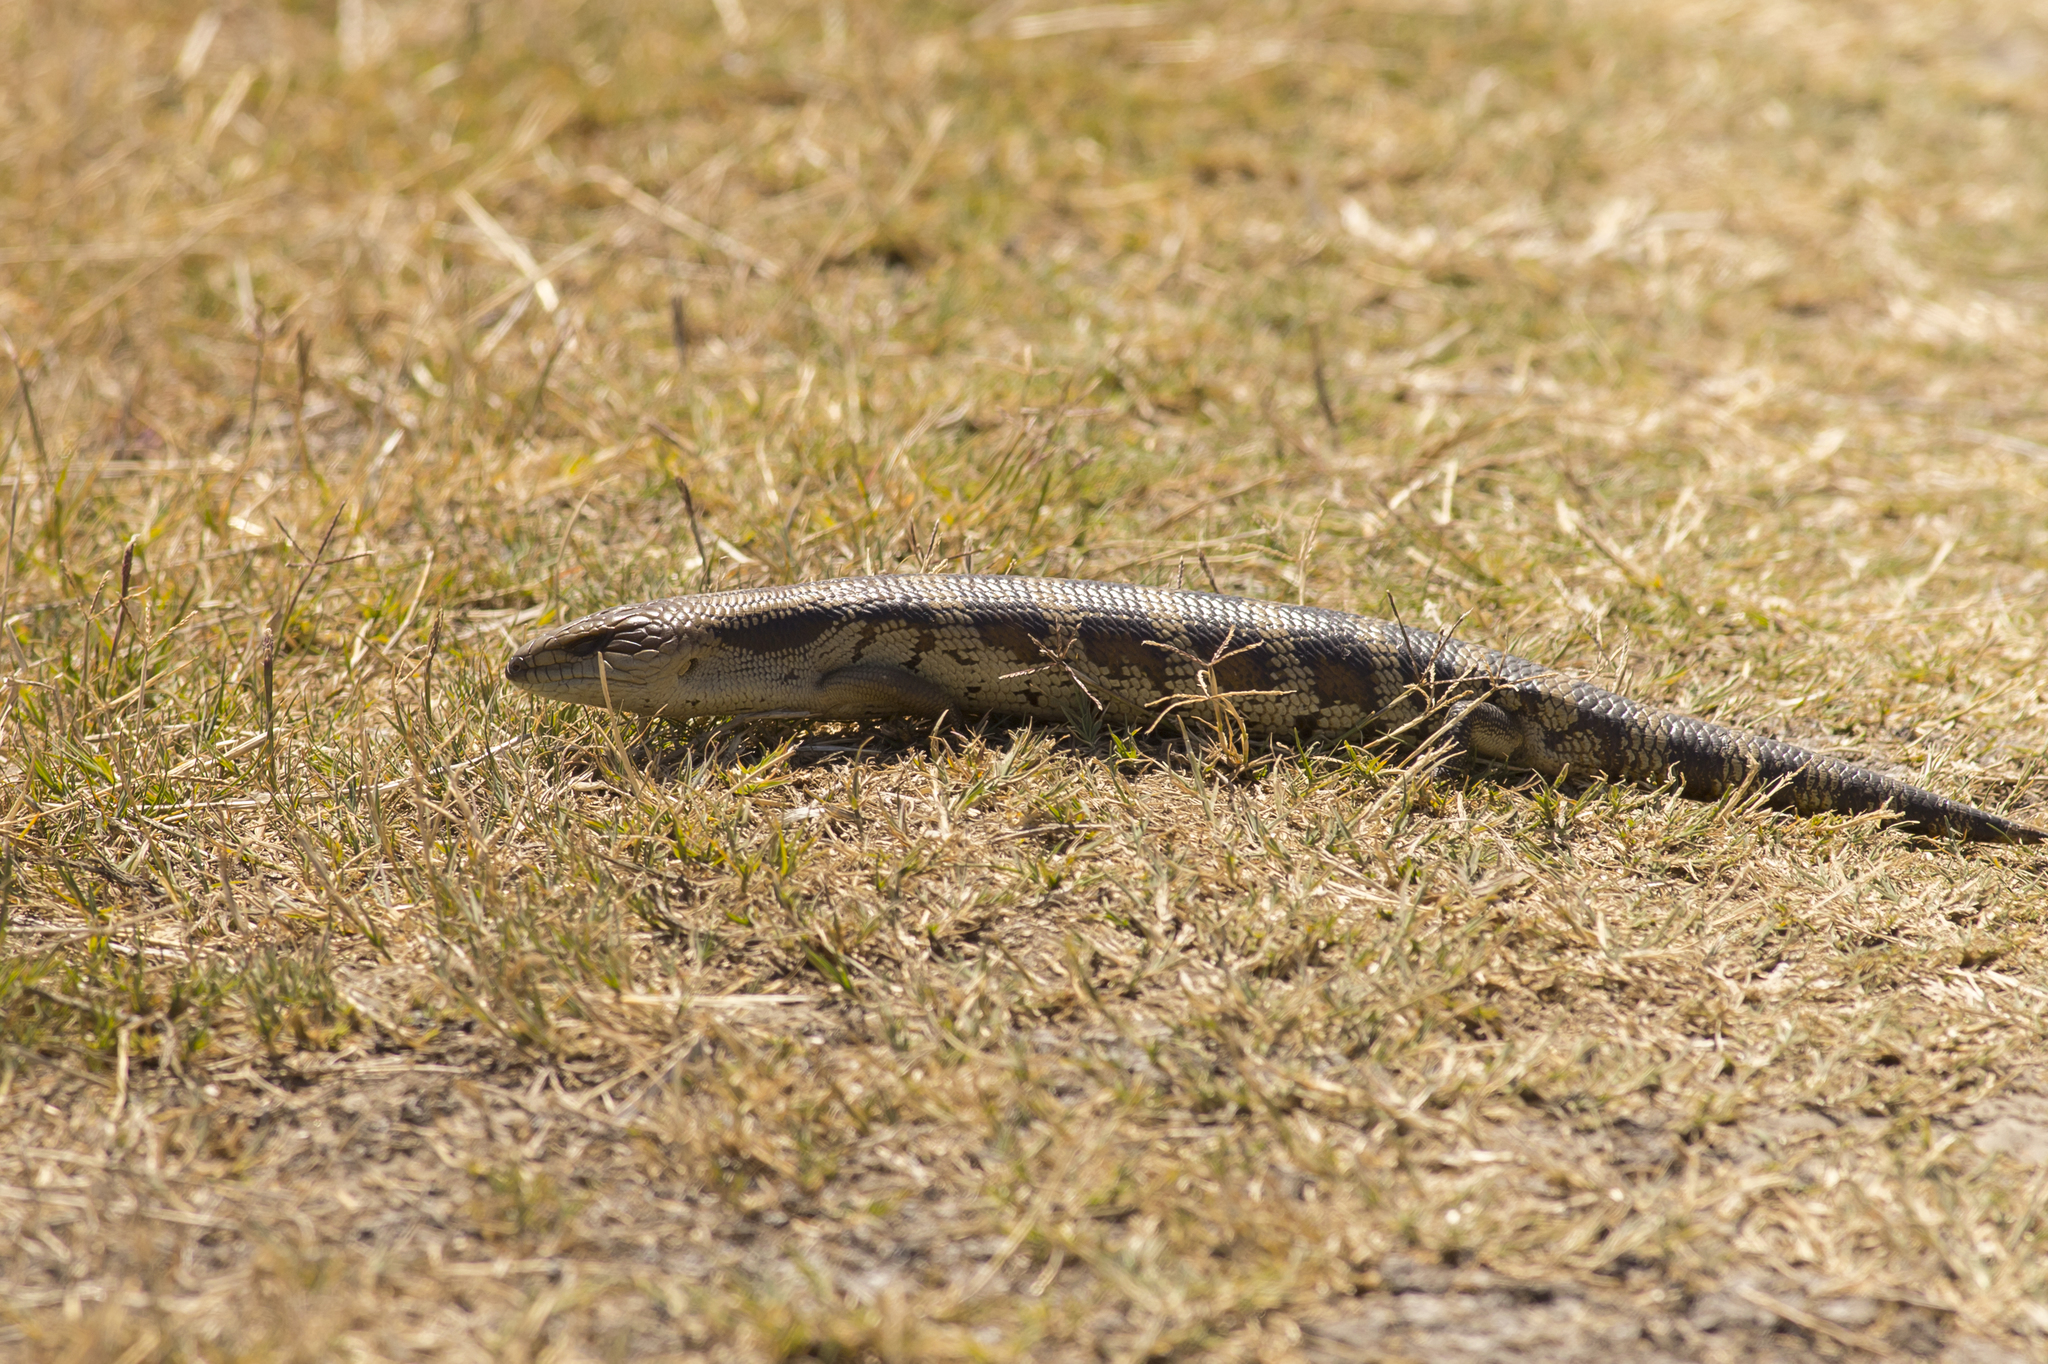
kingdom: Animalia
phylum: Chordata
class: Squamata
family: Scincidae
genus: Tiliqua
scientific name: Tiliqua scincoides
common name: Common bluetongue
